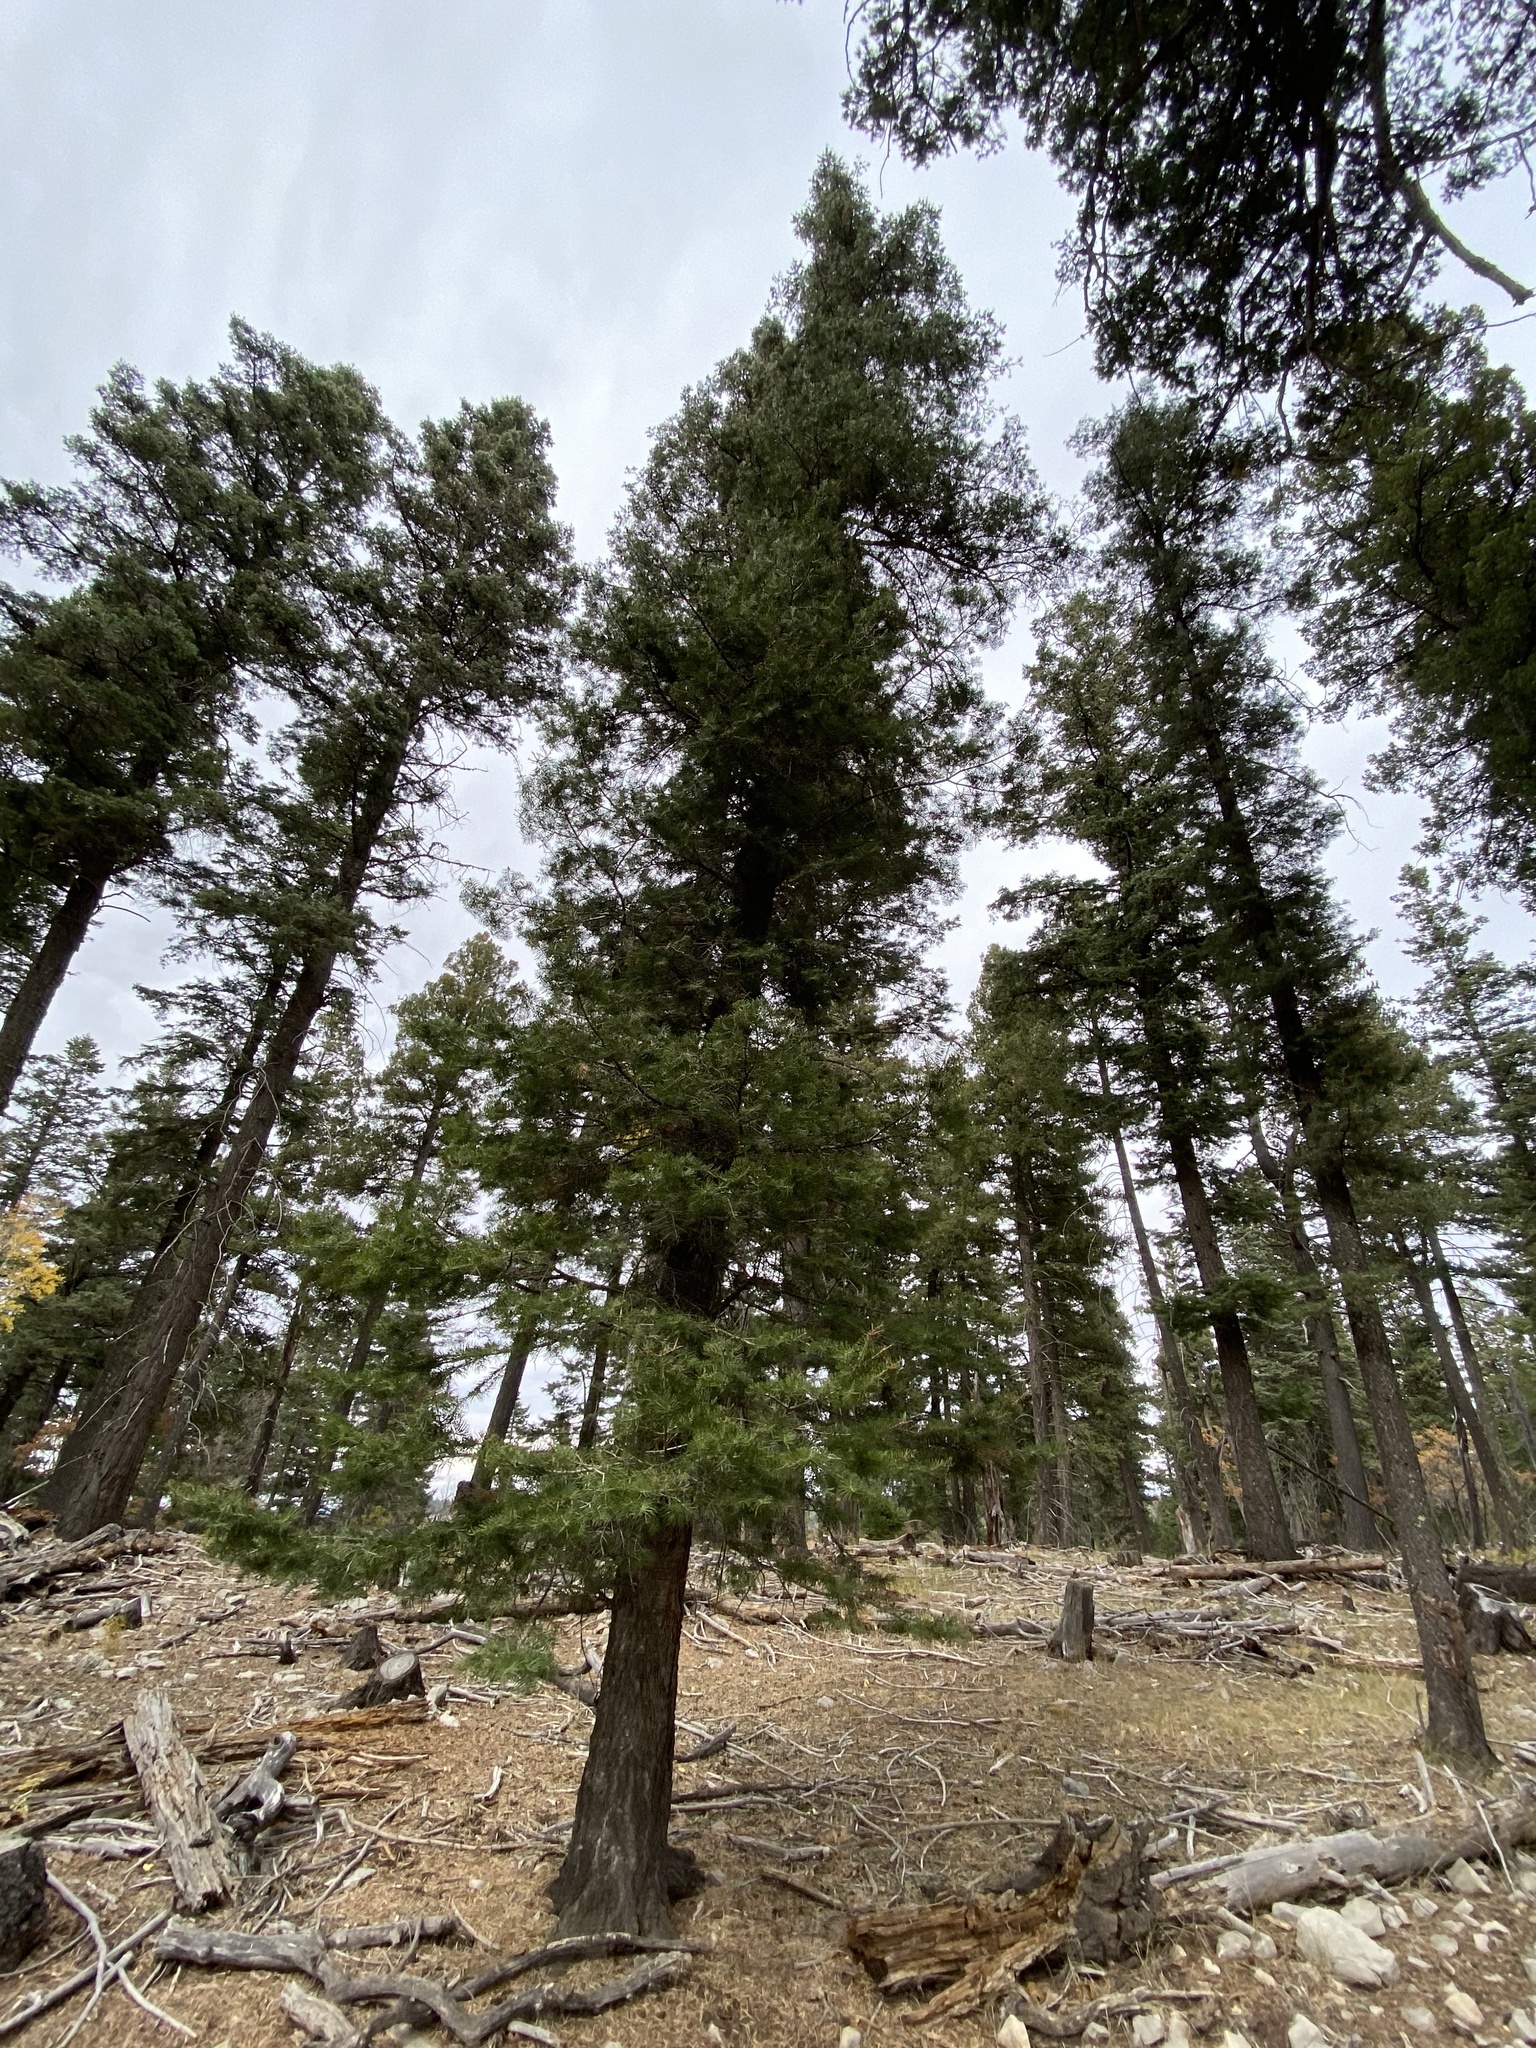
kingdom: Plantae
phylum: Tracheophyta
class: Pinopsida
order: Pinales
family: Pinaceae
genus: Abies
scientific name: Abies concolor
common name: Colorado fir
